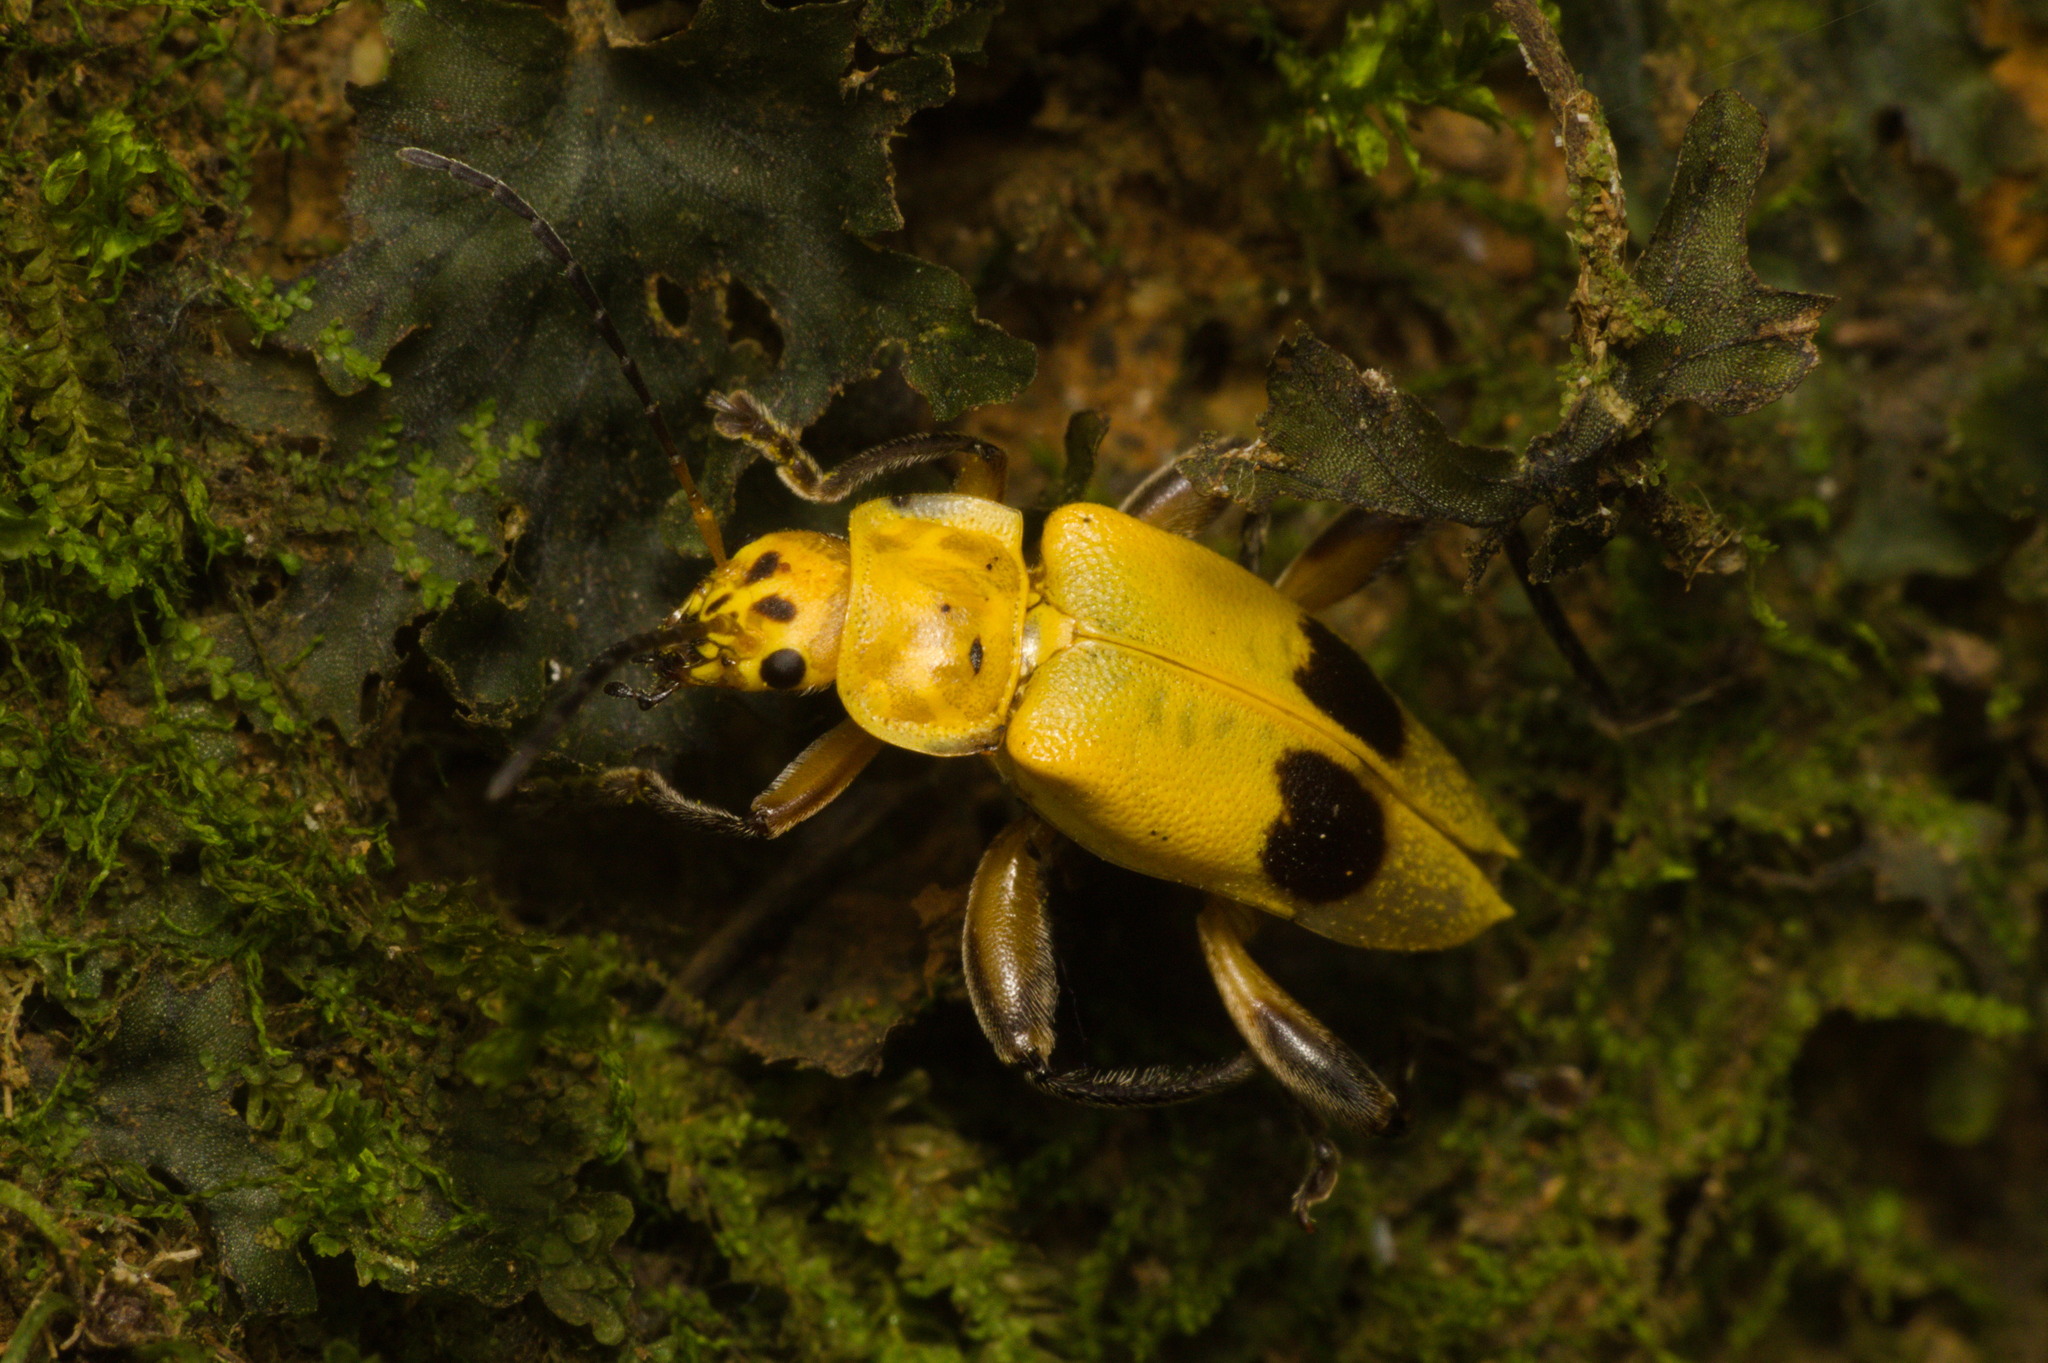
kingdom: Animalia
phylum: Arthropoda
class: Insecta
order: Coleoptera
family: Cantharidae
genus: Chauliognathus
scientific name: Chauliognathus
